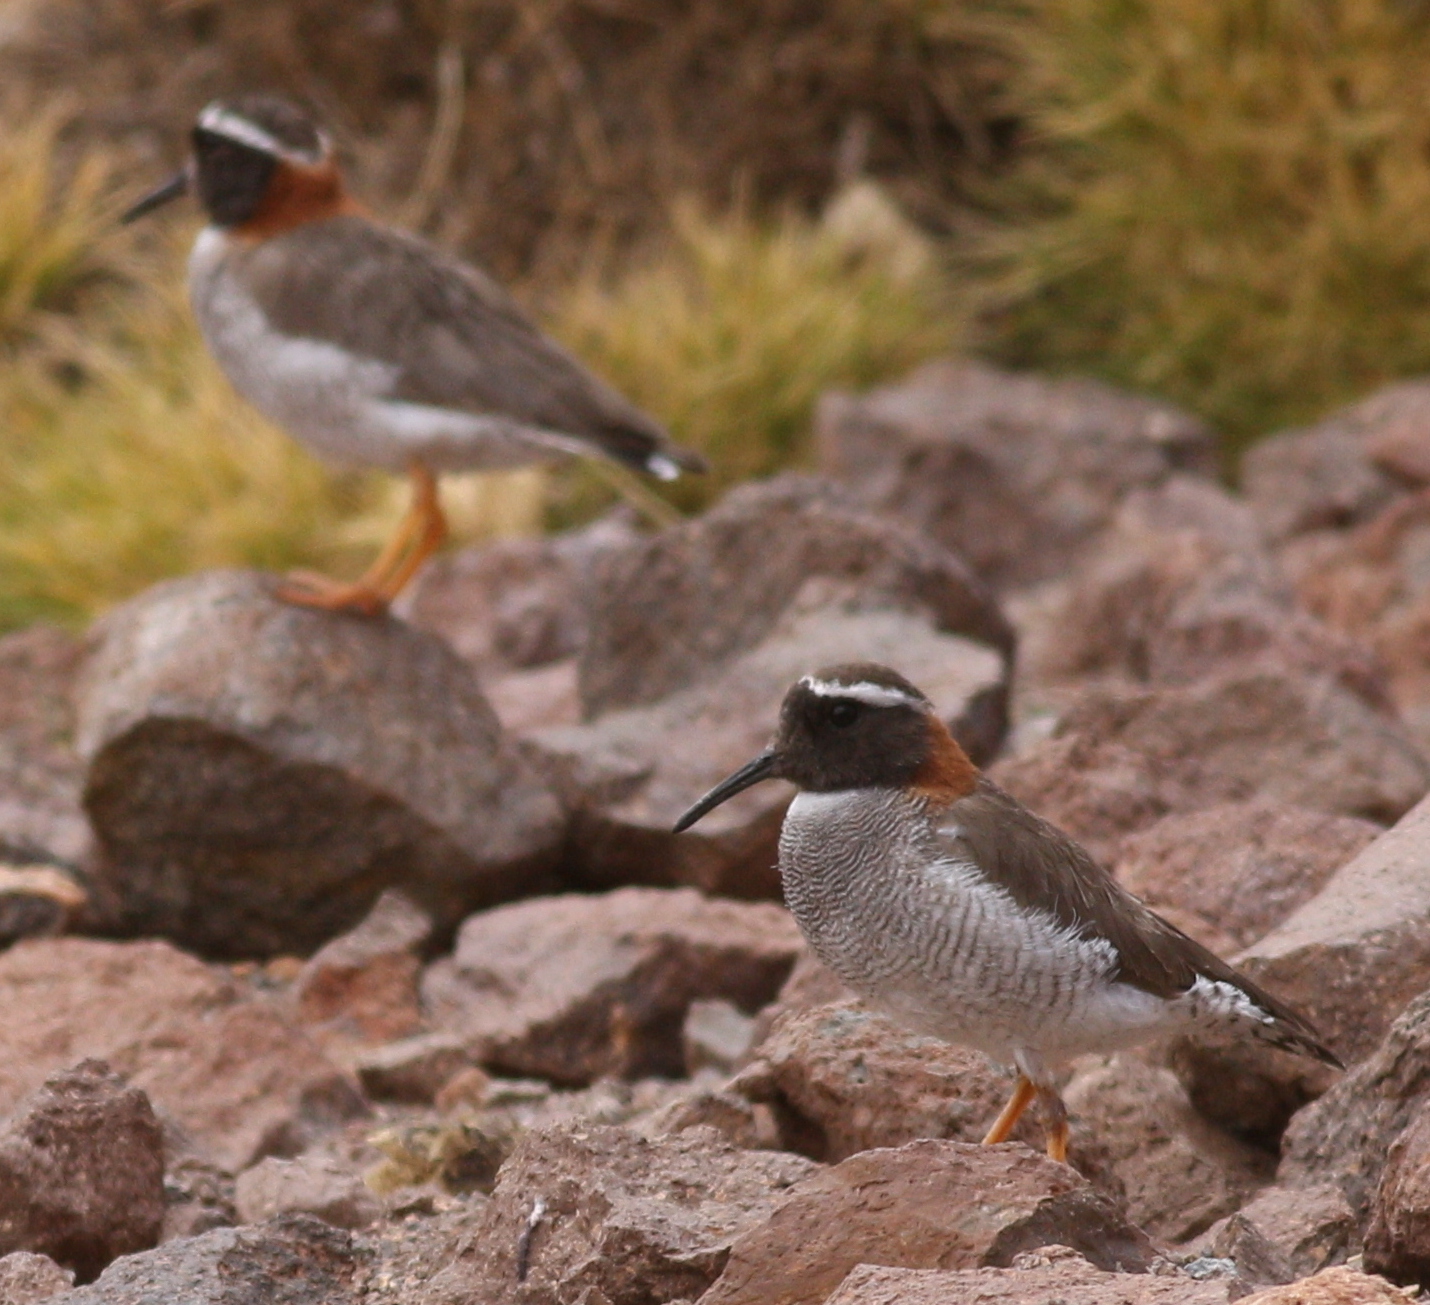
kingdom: Animalia
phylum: Chordata
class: Aves
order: Charadriiformes
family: Charadriidae
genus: Phegornis
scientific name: Phegornis mitchellii
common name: Diademed sandpiper-plover
